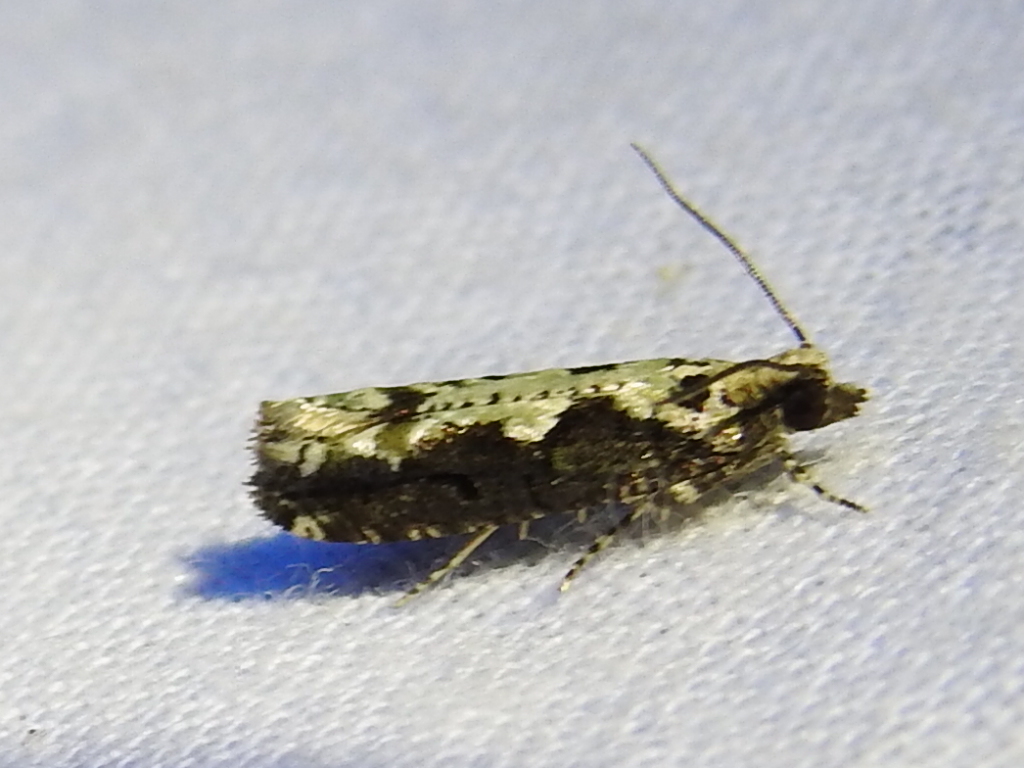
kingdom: Animalia
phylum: Arthropoda
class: Insecta
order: Lepidoptera
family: Tortricidae
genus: Chimoptesis
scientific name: Chimoptesis pennsylvaniana
